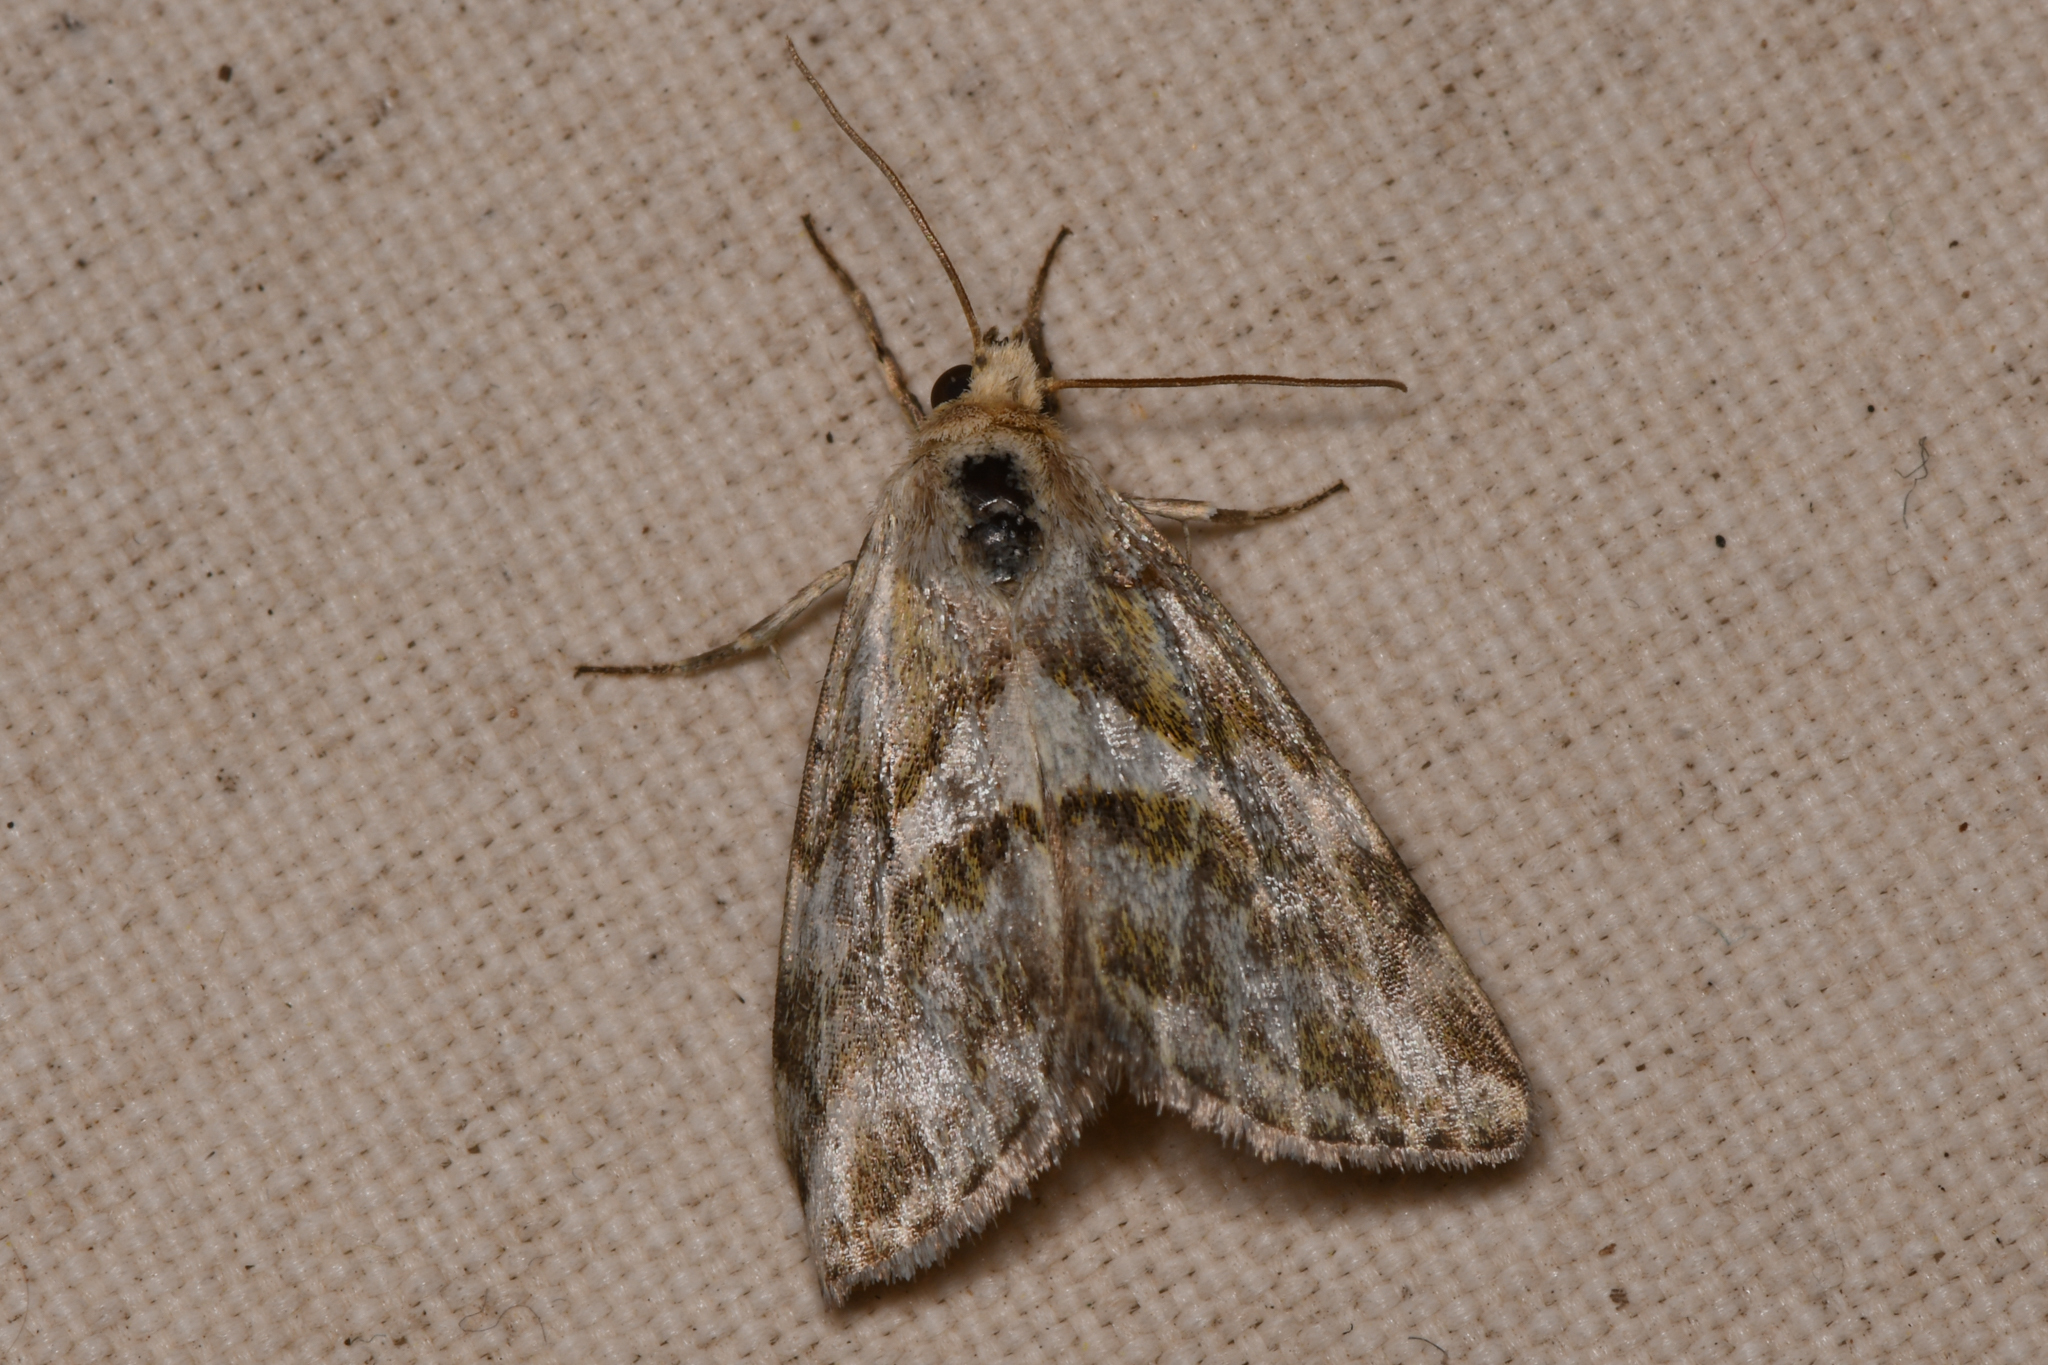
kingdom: Animalia
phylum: Arthropoda
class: Insecta
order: Lepidoptera
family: Noctuidae
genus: Lineostriastiria
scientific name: Lineostriastiria olivalis
